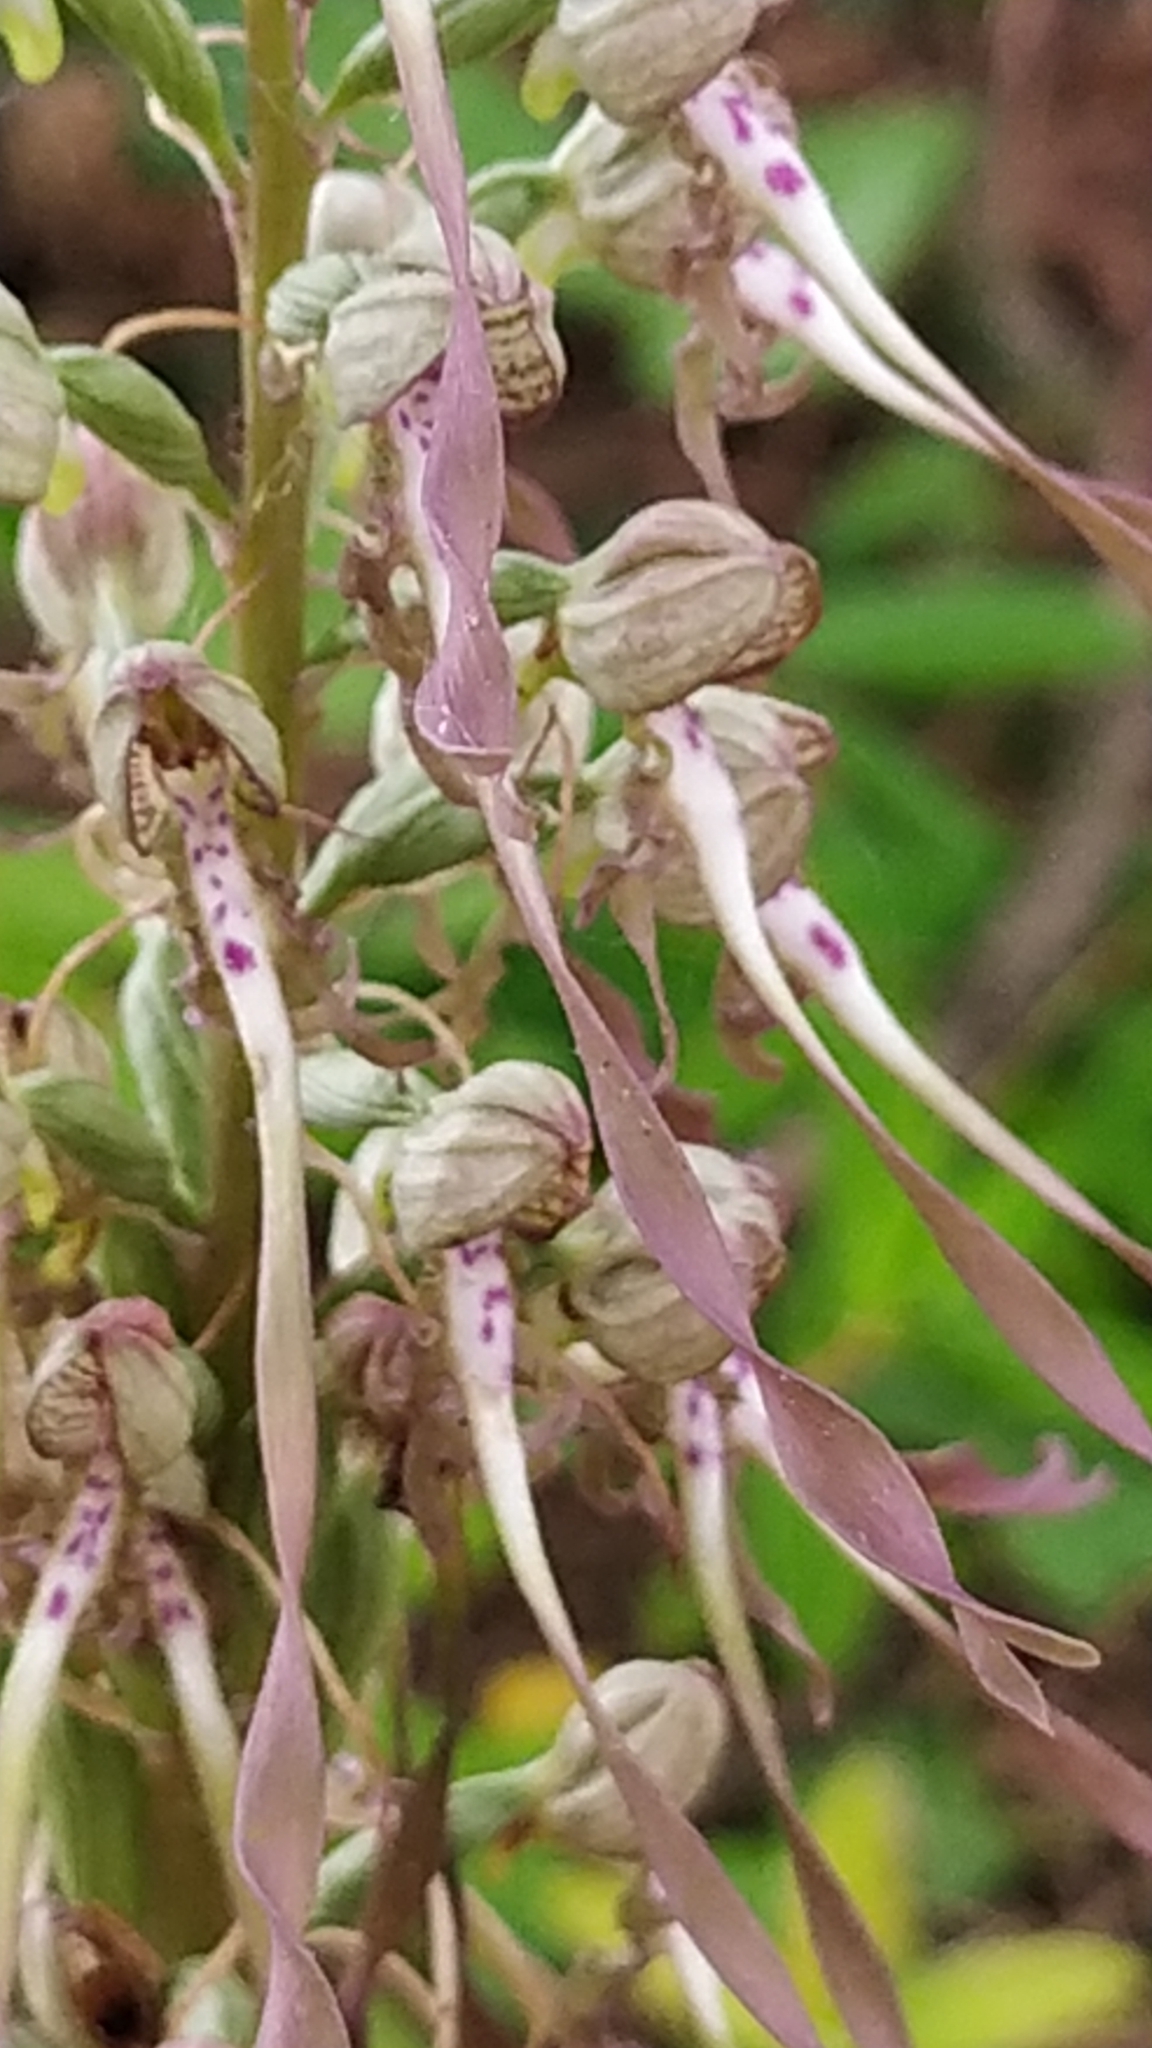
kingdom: Plantae
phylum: Tracheophyta
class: Liliopsida
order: Asparagales
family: Orchidaceae
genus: Himantoglossum
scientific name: Himantoglossum hircinum
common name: Lizard orchid
